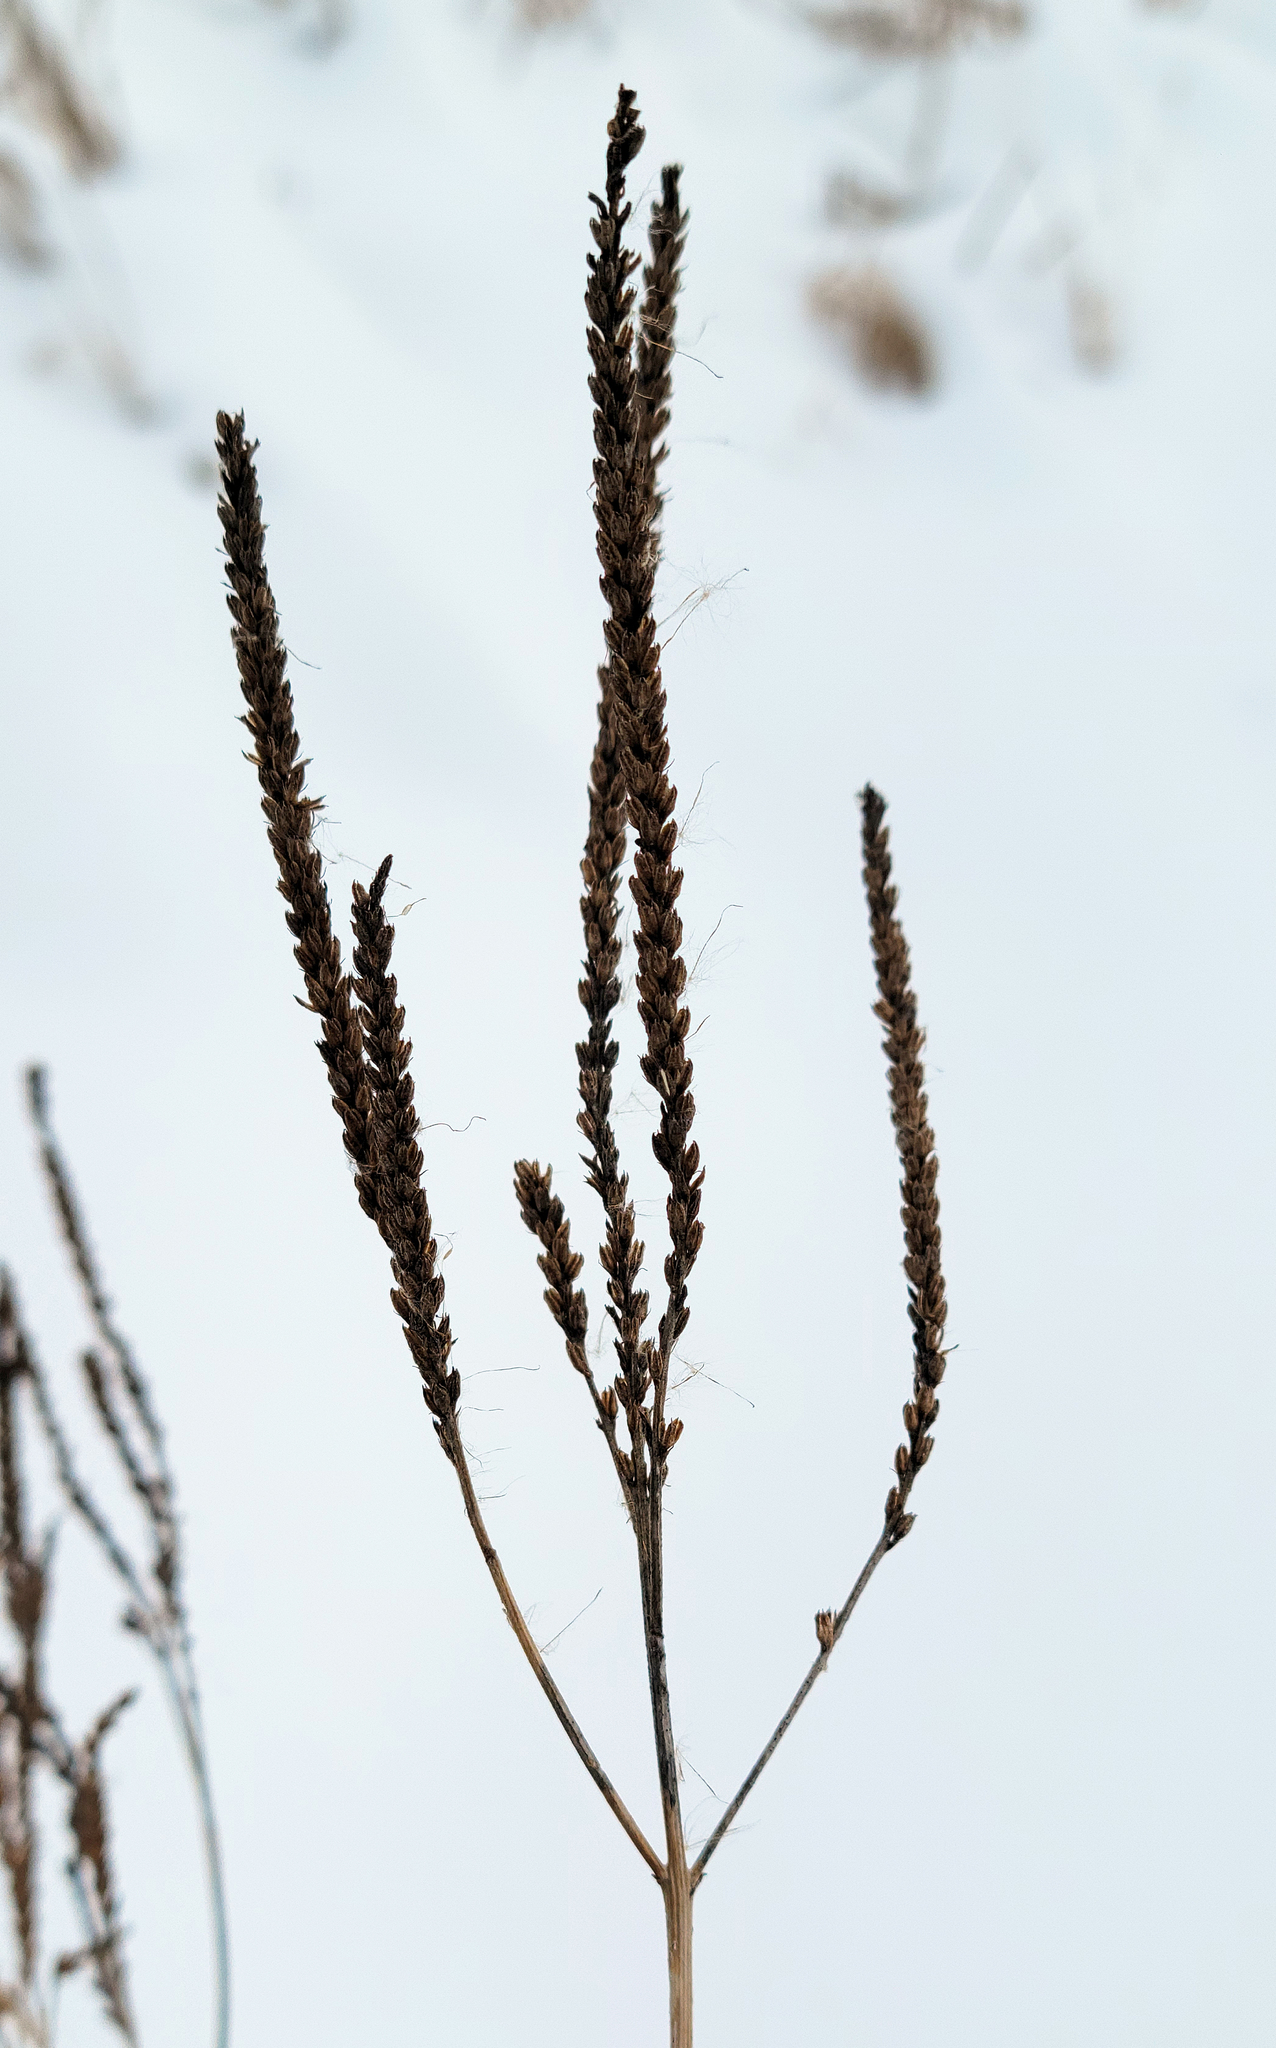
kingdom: Plantae
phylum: Tracheophyta
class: Magnoliopsida
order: Lamiales
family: Verbenaceae
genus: Verbena
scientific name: Verbena hastata
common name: American blue vervain
